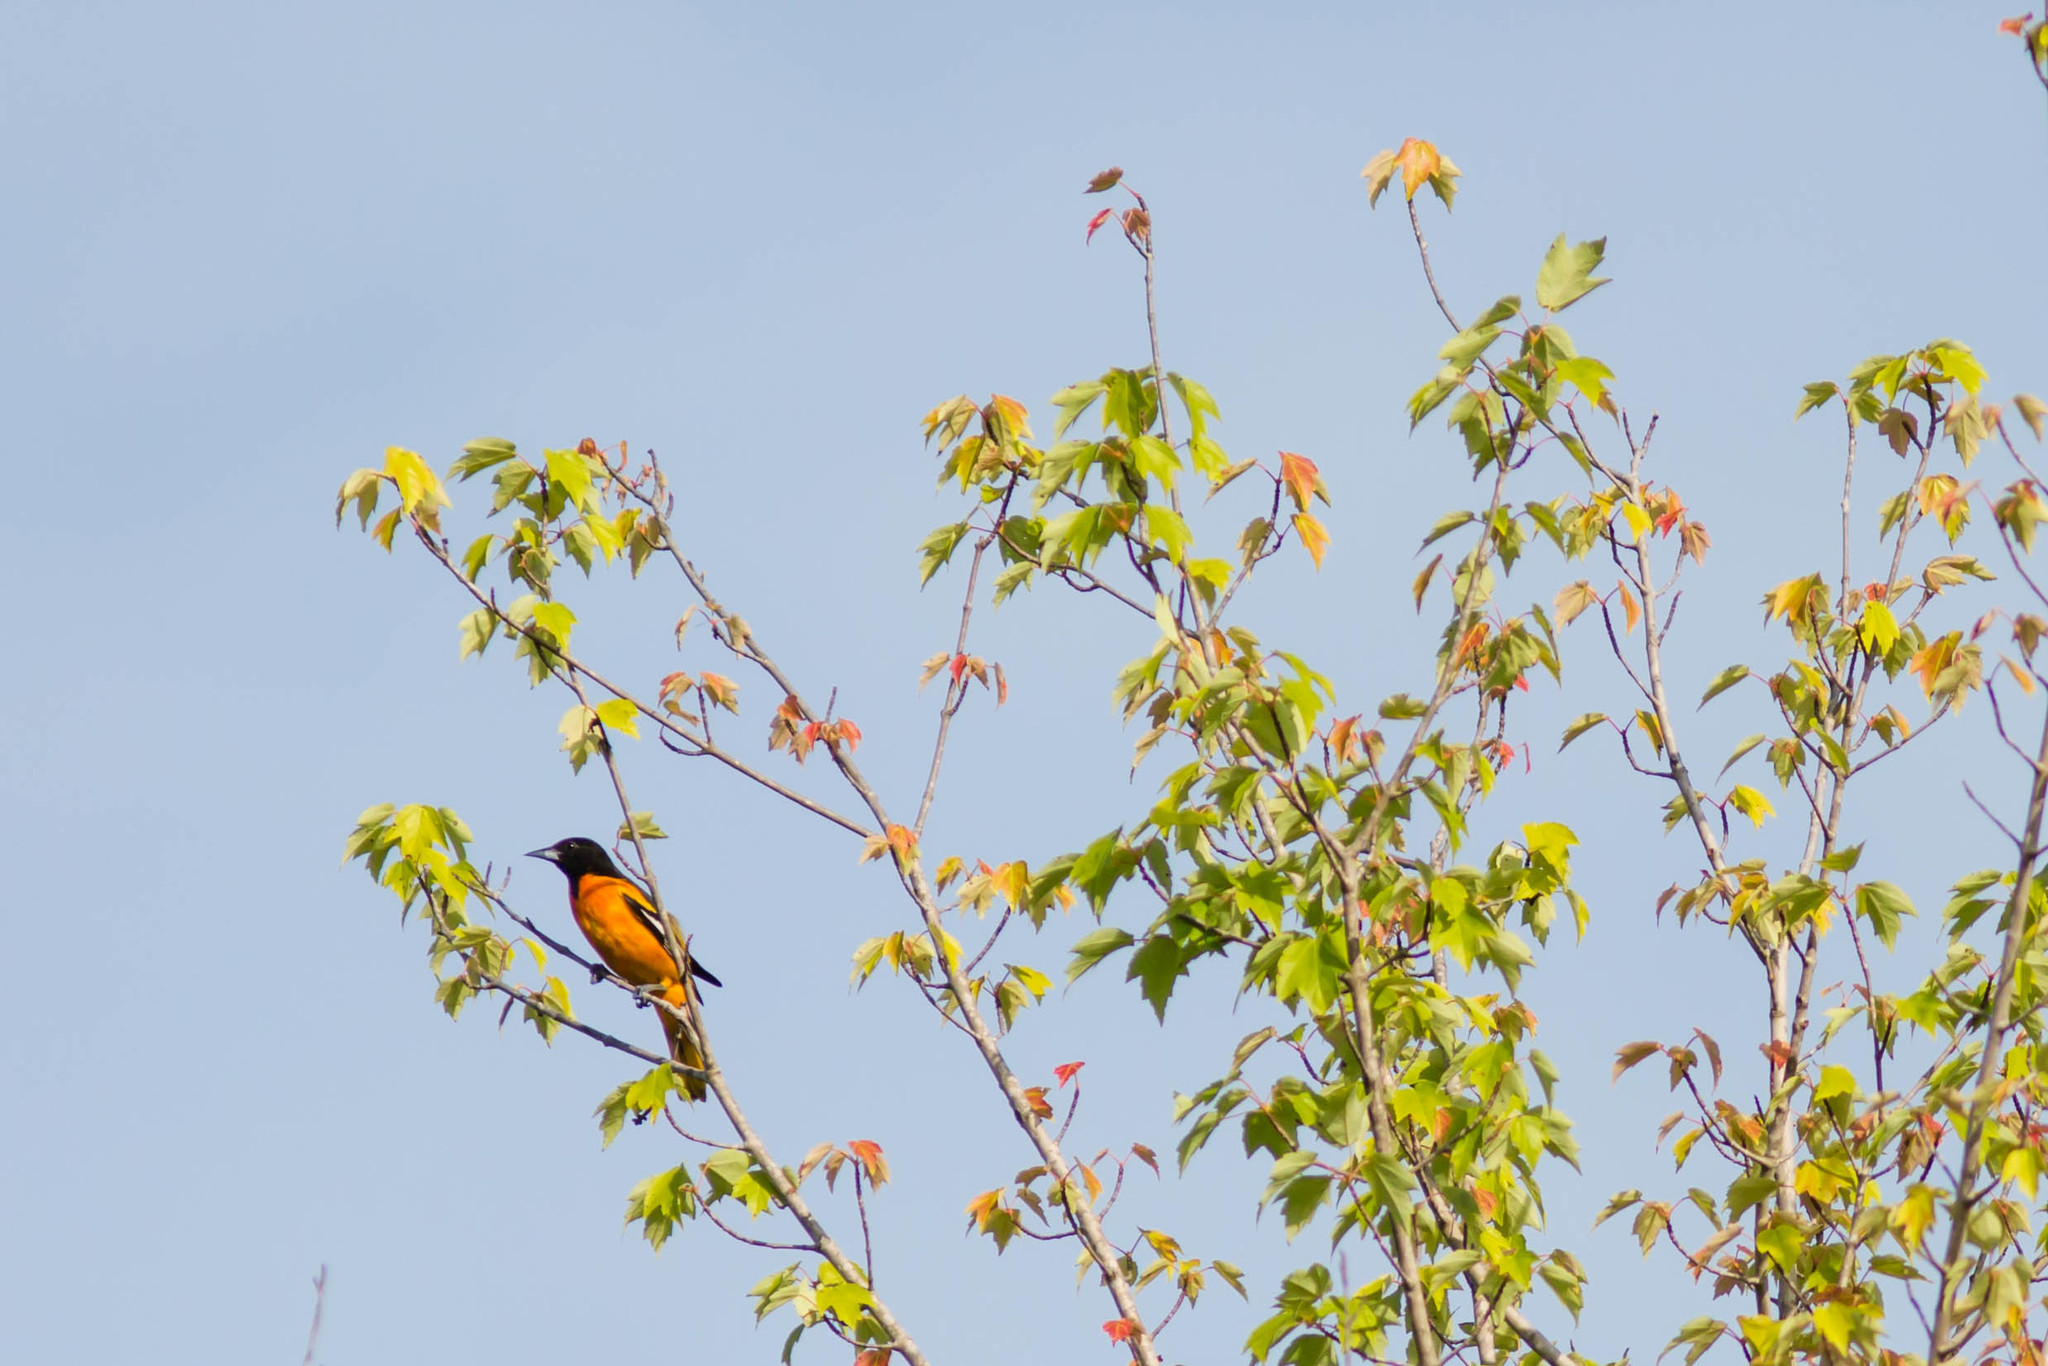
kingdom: Animalia
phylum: Chordata
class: Aves
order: Passeriformes
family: Icteridae
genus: Icterus
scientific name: Icterus galbula
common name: Baltimore oriole
